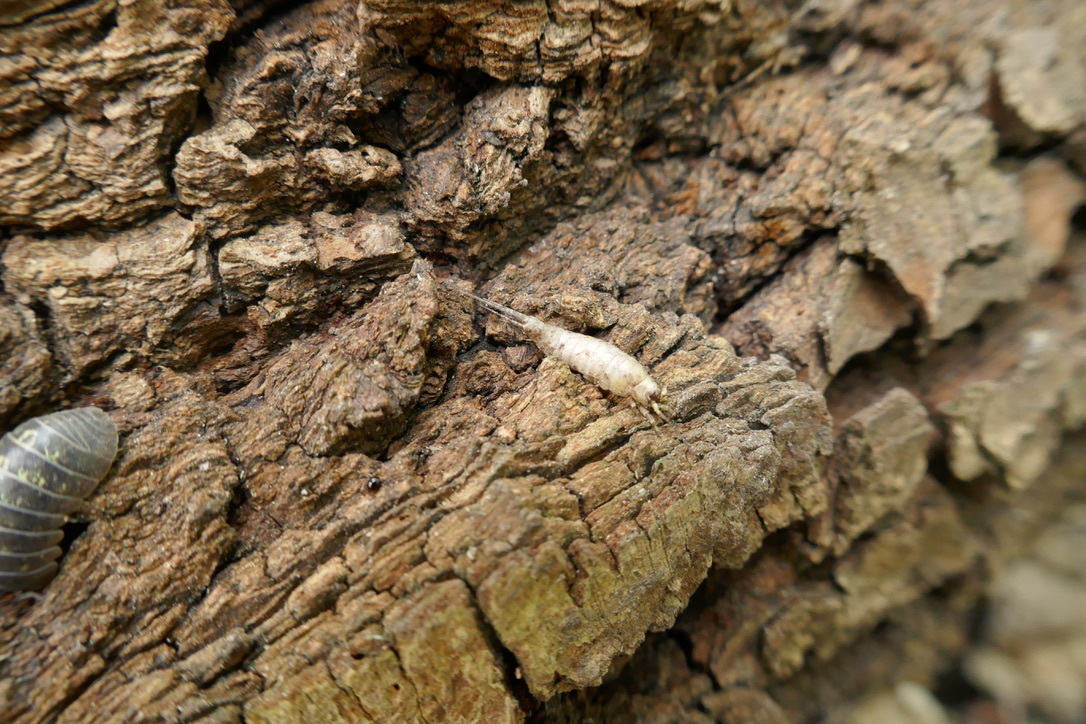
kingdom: Animalia
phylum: Arthropoda
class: Insecta
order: Archaeognatha
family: Machilidae
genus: Lepismachilis
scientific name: Lepismachilis y-signata
